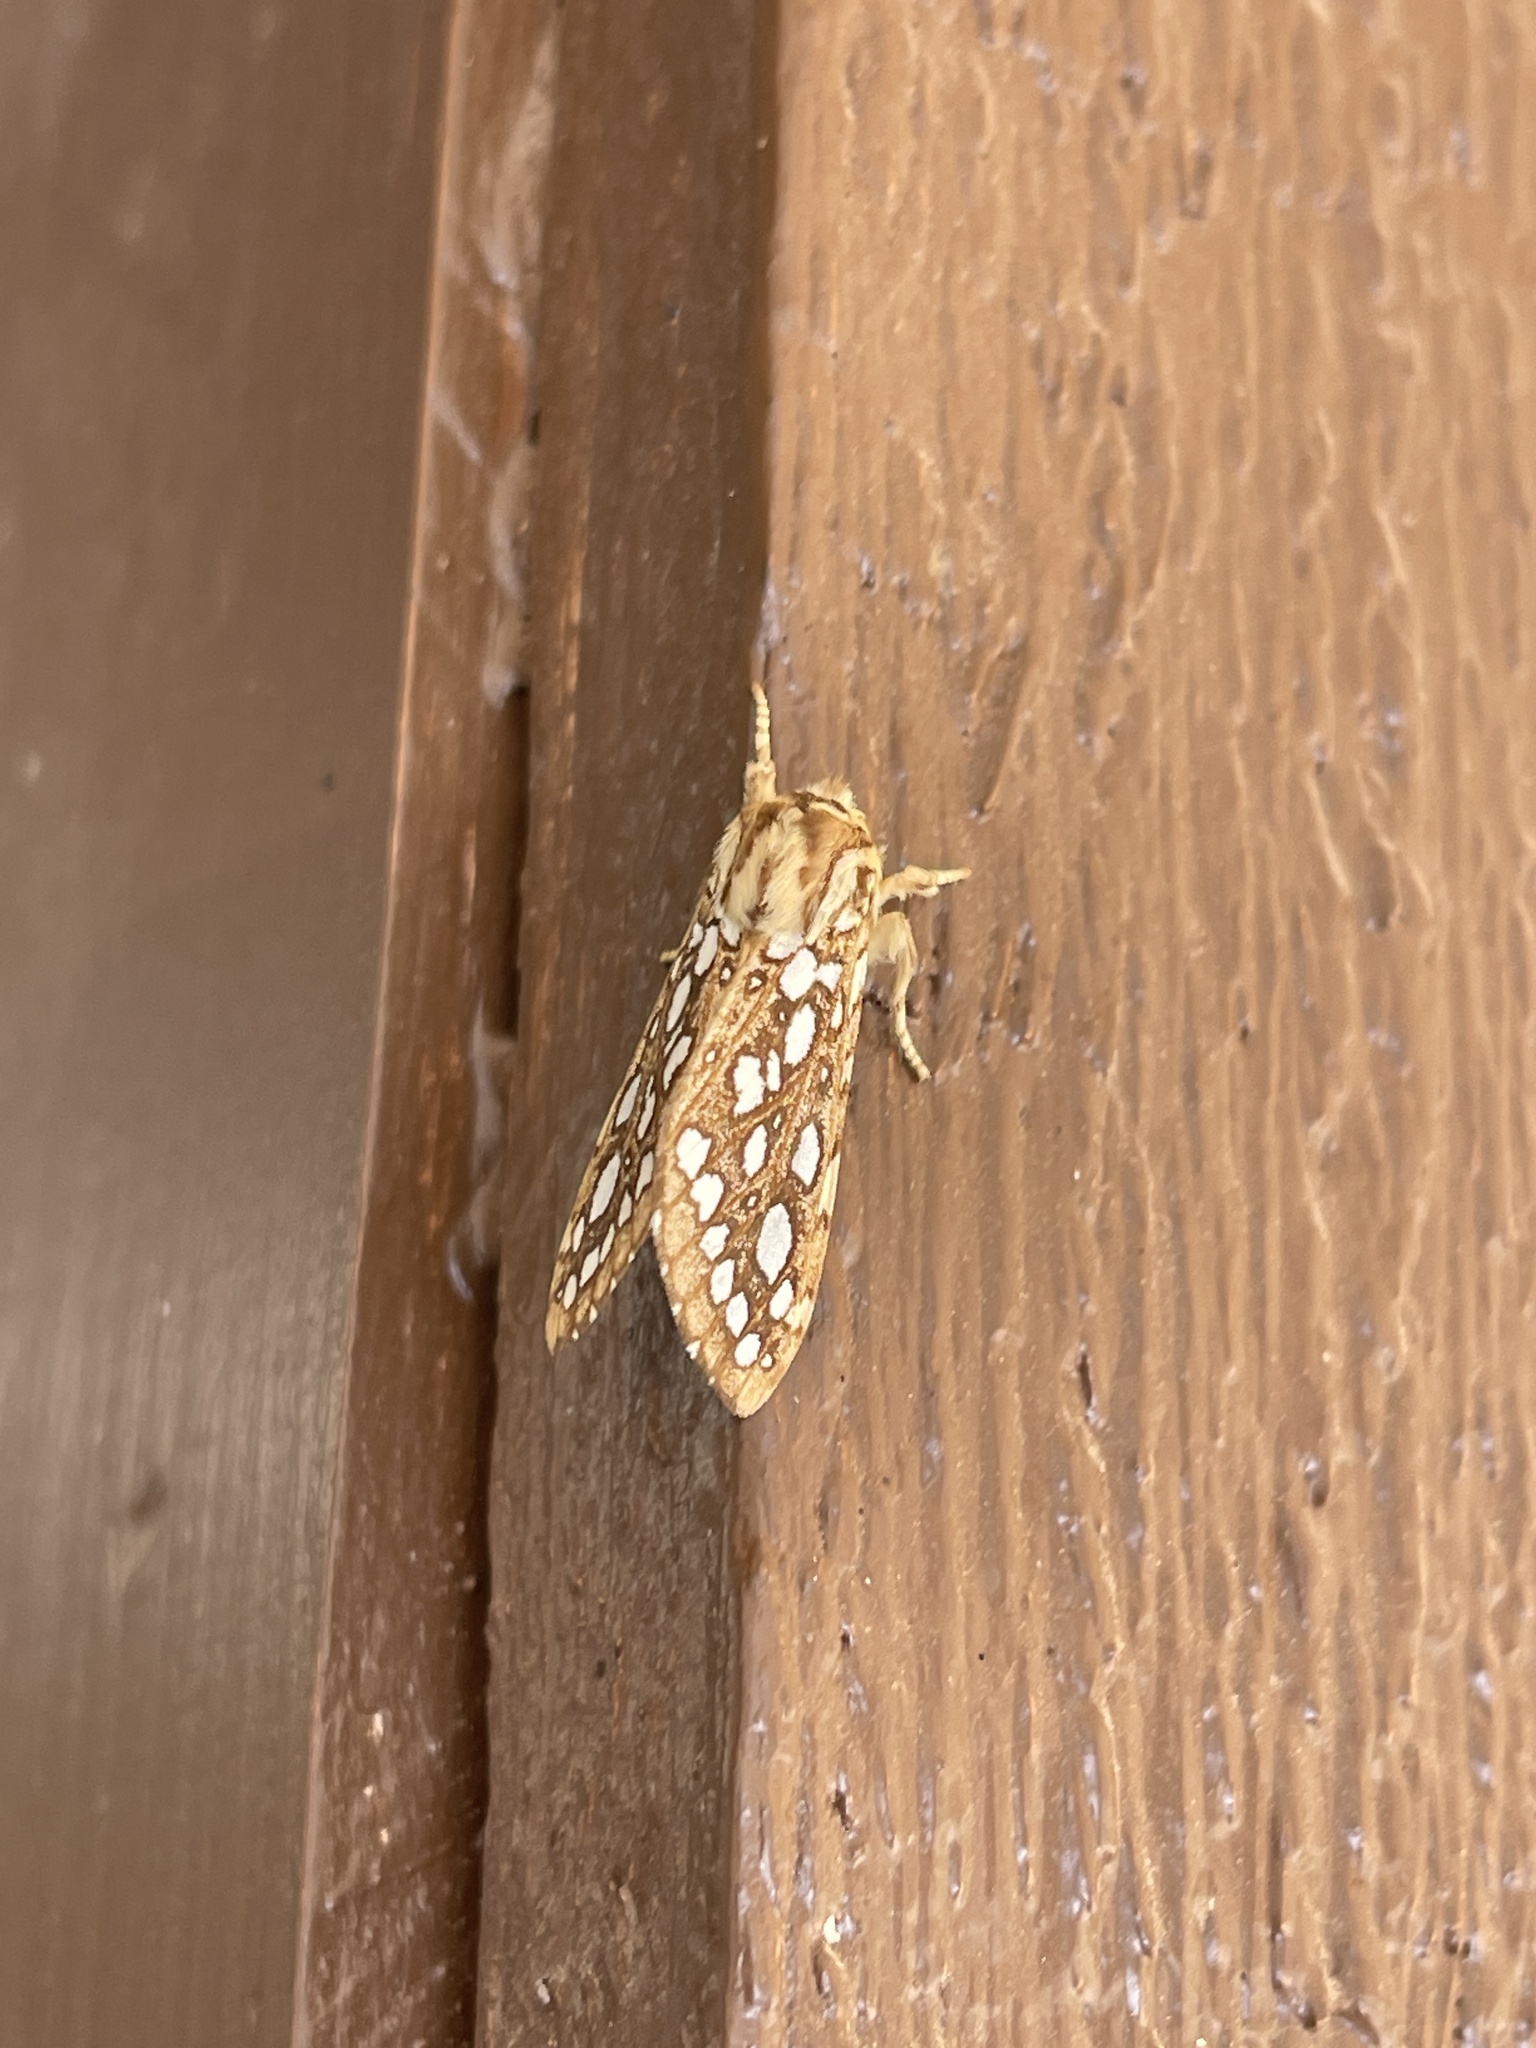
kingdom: Animalia
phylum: Arthropoda
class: Insecta
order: Lepidoptera
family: Erebidae
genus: Lophocampa
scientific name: Lophocampa argentata
